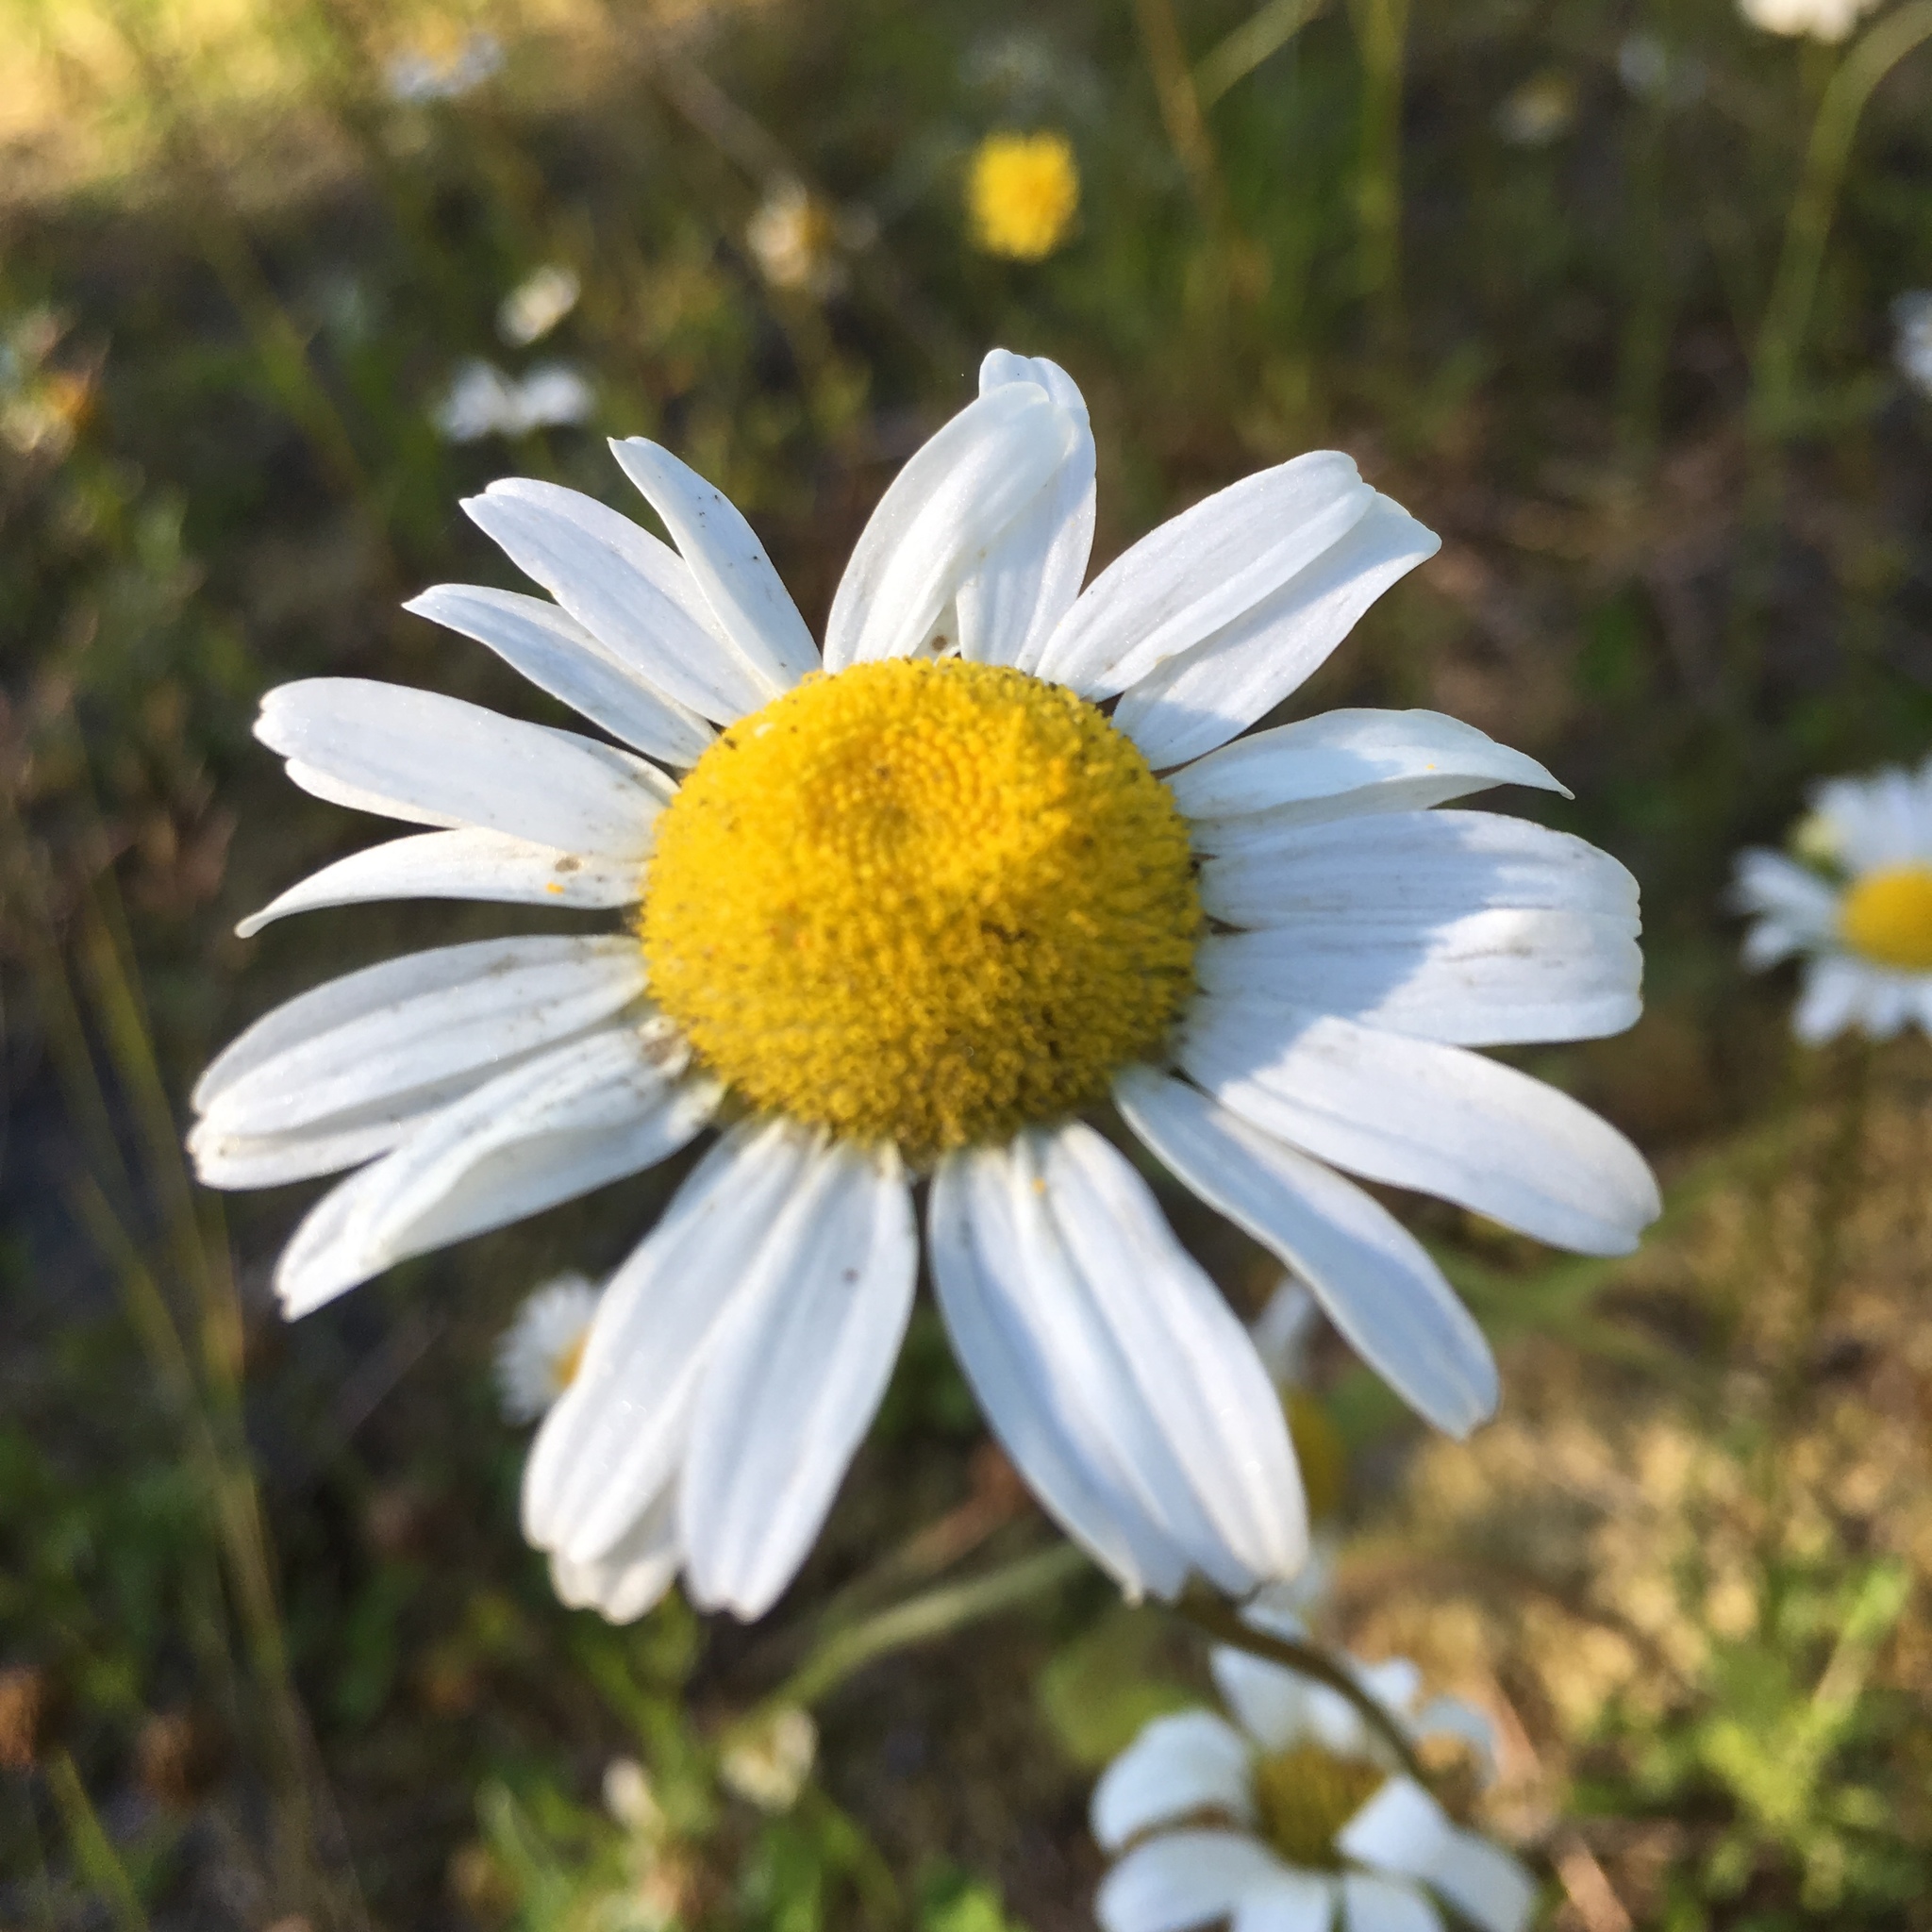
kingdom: Plantae
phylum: Tracheophyta
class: Magnoliopsida
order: Asterales
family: Asteraceae
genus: Leucanthemum
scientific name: Leucanthemum vulgare
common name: Oxeye daisy
